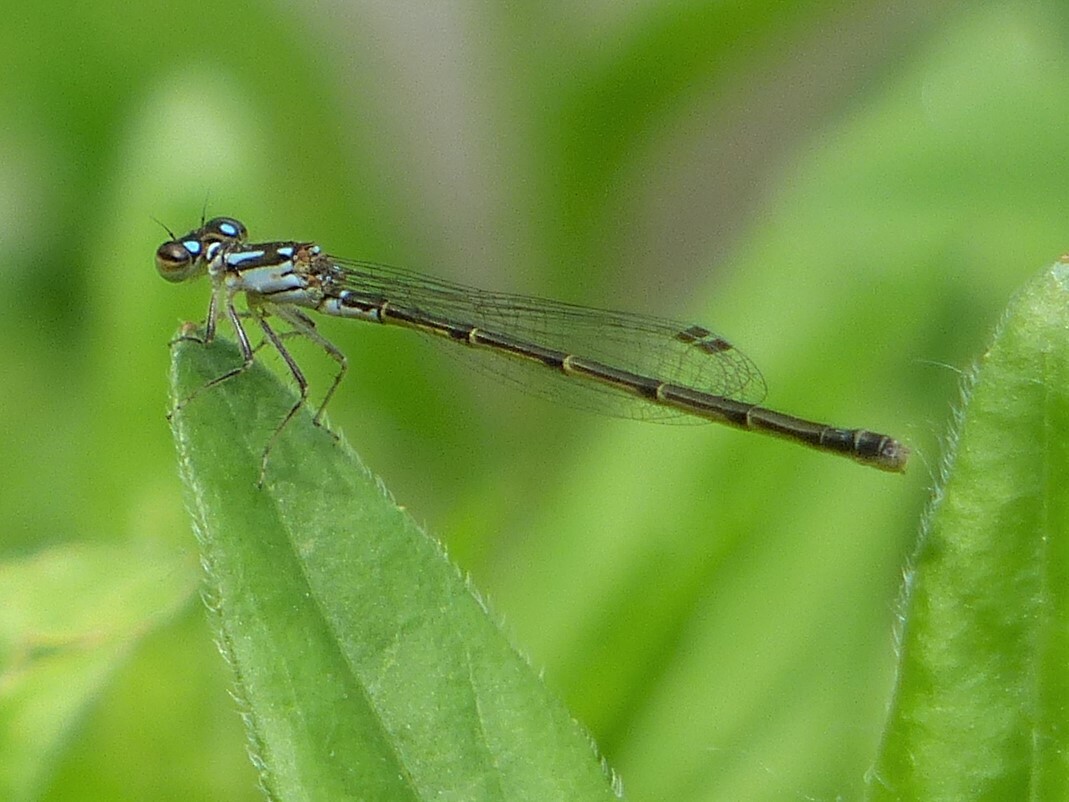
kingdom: Animalia
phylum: Arthropoda
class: Insecta
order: Odonata
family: Coenagrionidae
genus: Ischnura
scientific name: Ischnura posita
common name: Fragile forktail
